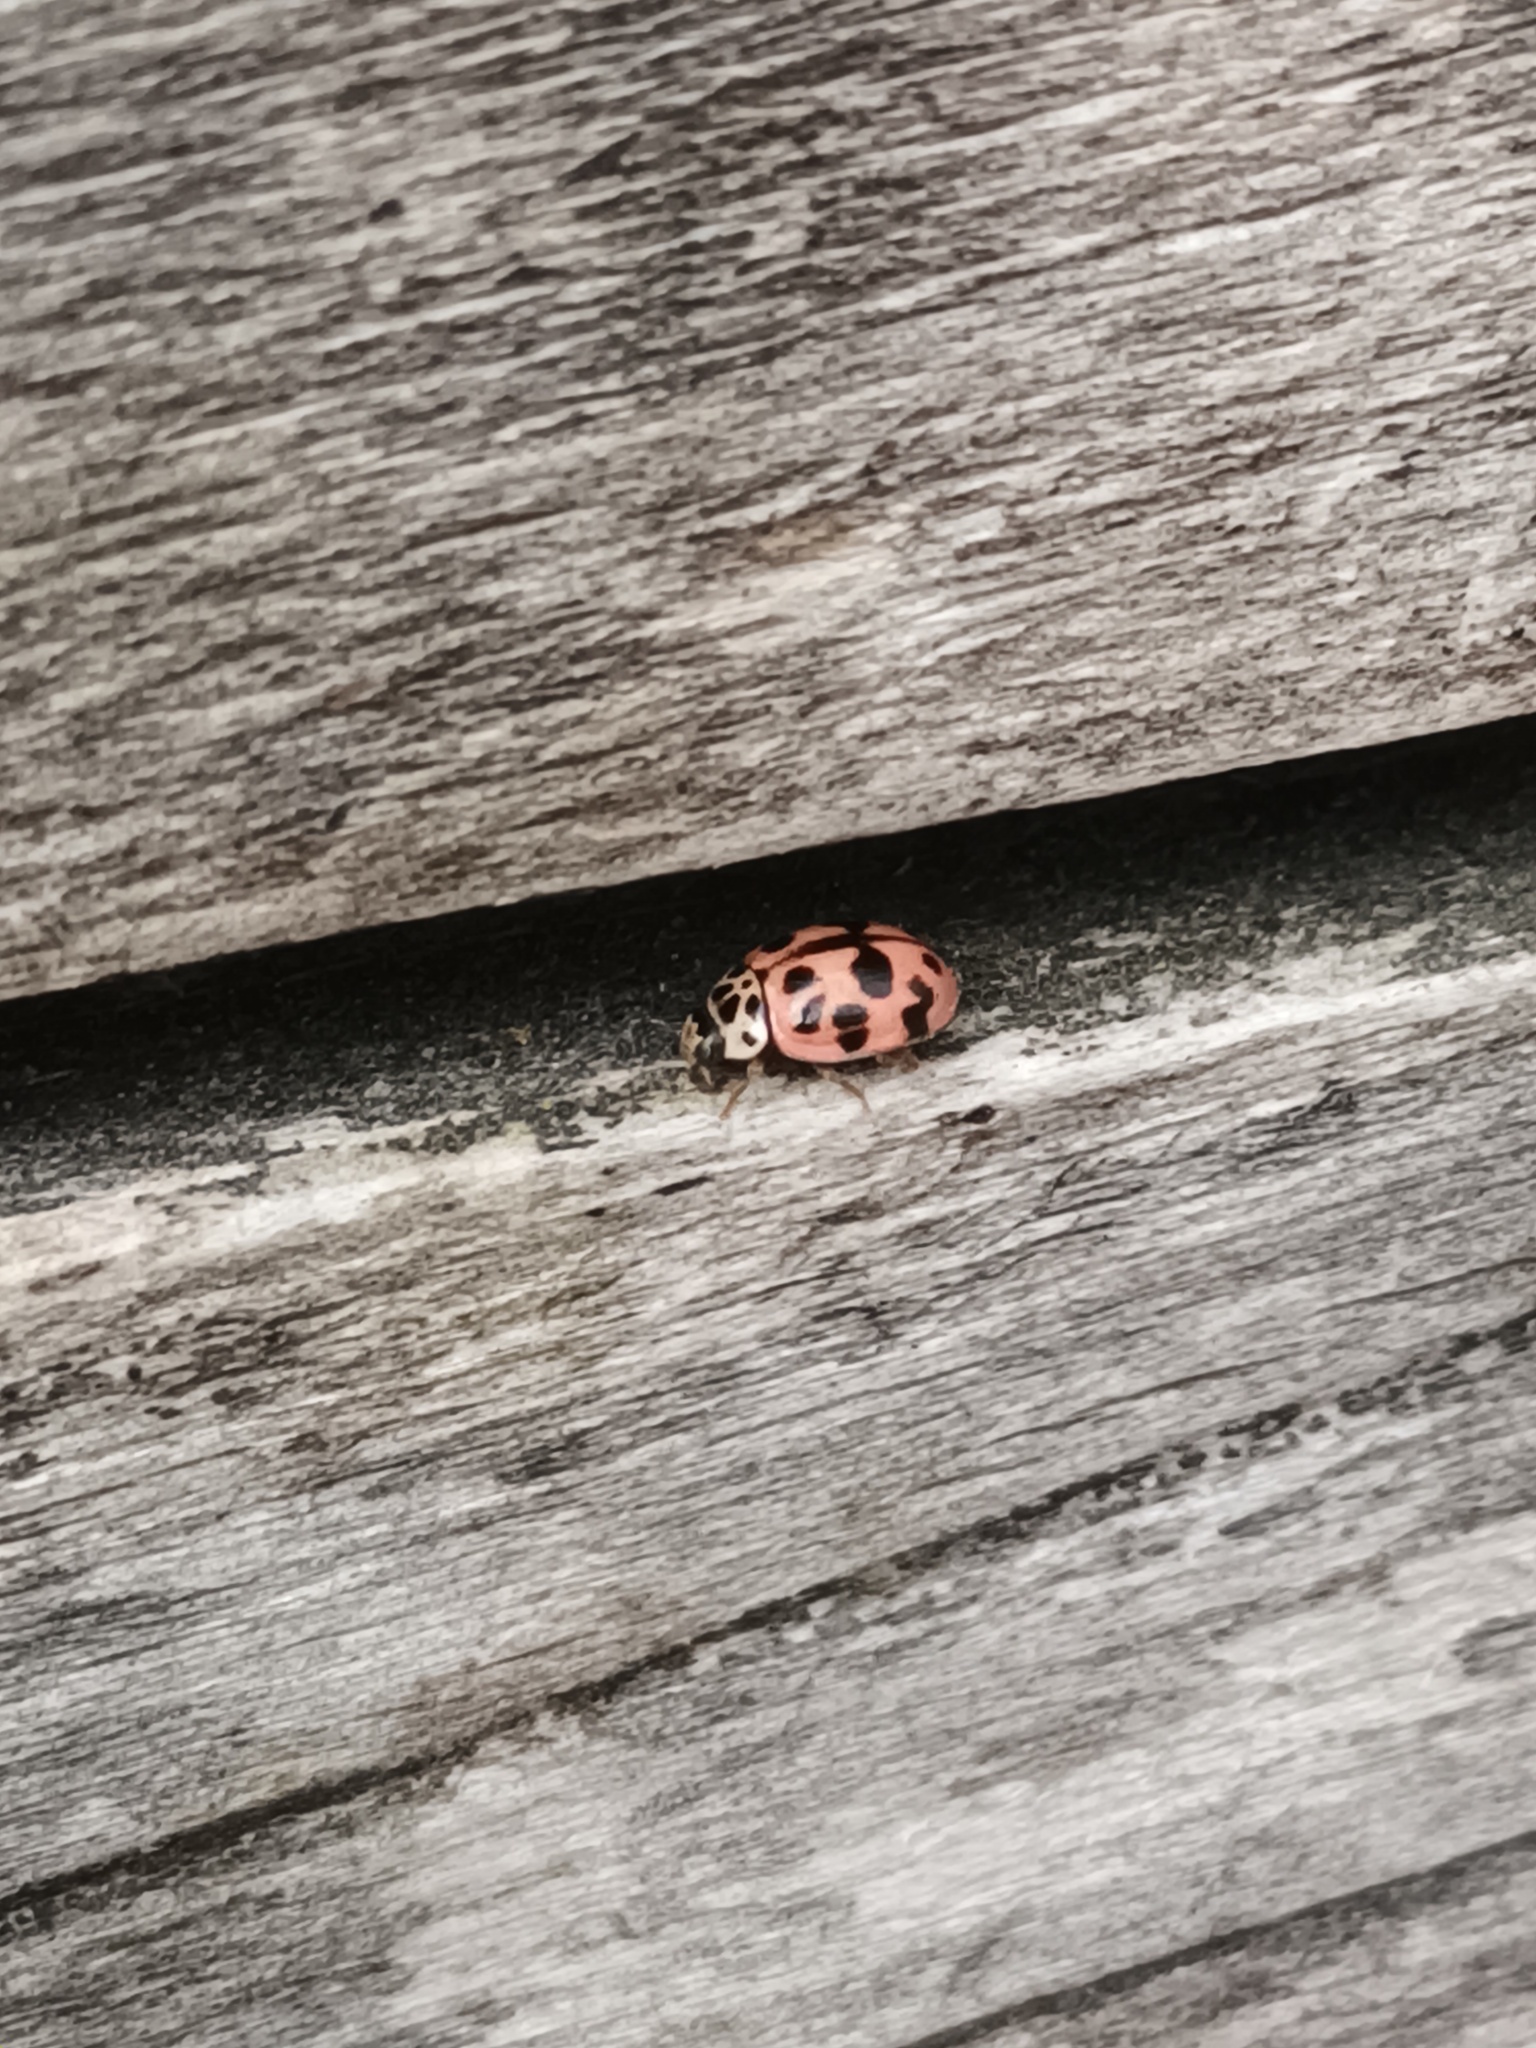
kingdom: Animalia
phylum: Arthropoda
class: Insecta
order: Coleoptera
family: Coccinellidae
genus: Oenopia
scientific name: Oenopia conglobata
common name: Ladybird beetle
